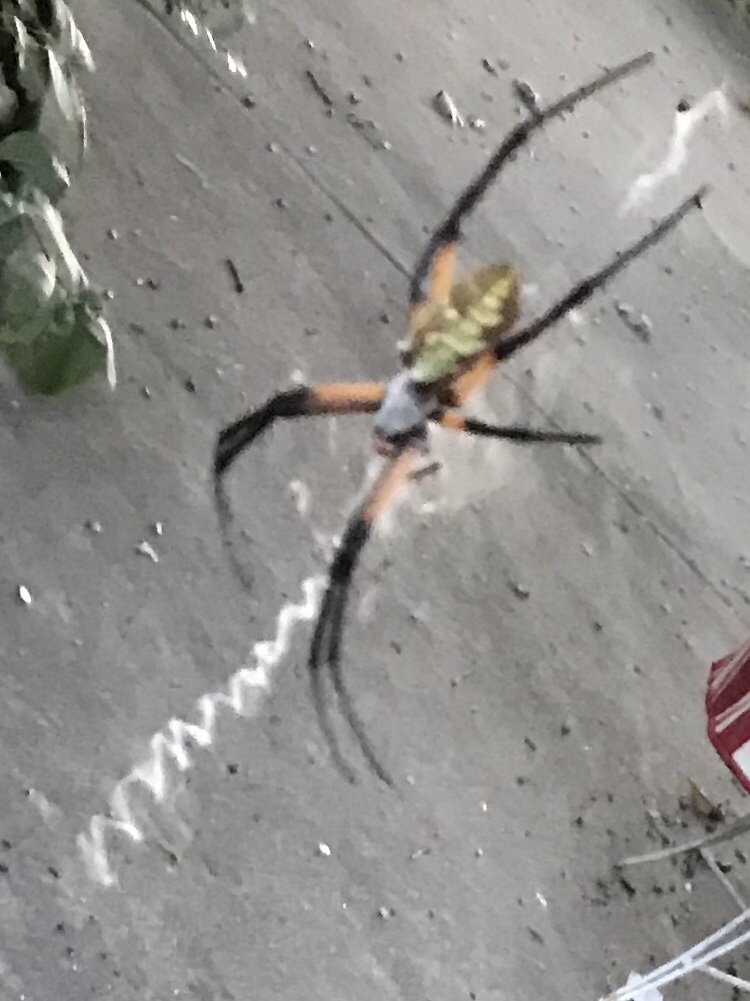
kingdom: Animalia
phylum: Arthropoda
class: Arachnida
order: Araneae
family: Araneidae
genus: Argiope
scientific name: Argiope aurantia
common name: Orb weavers
